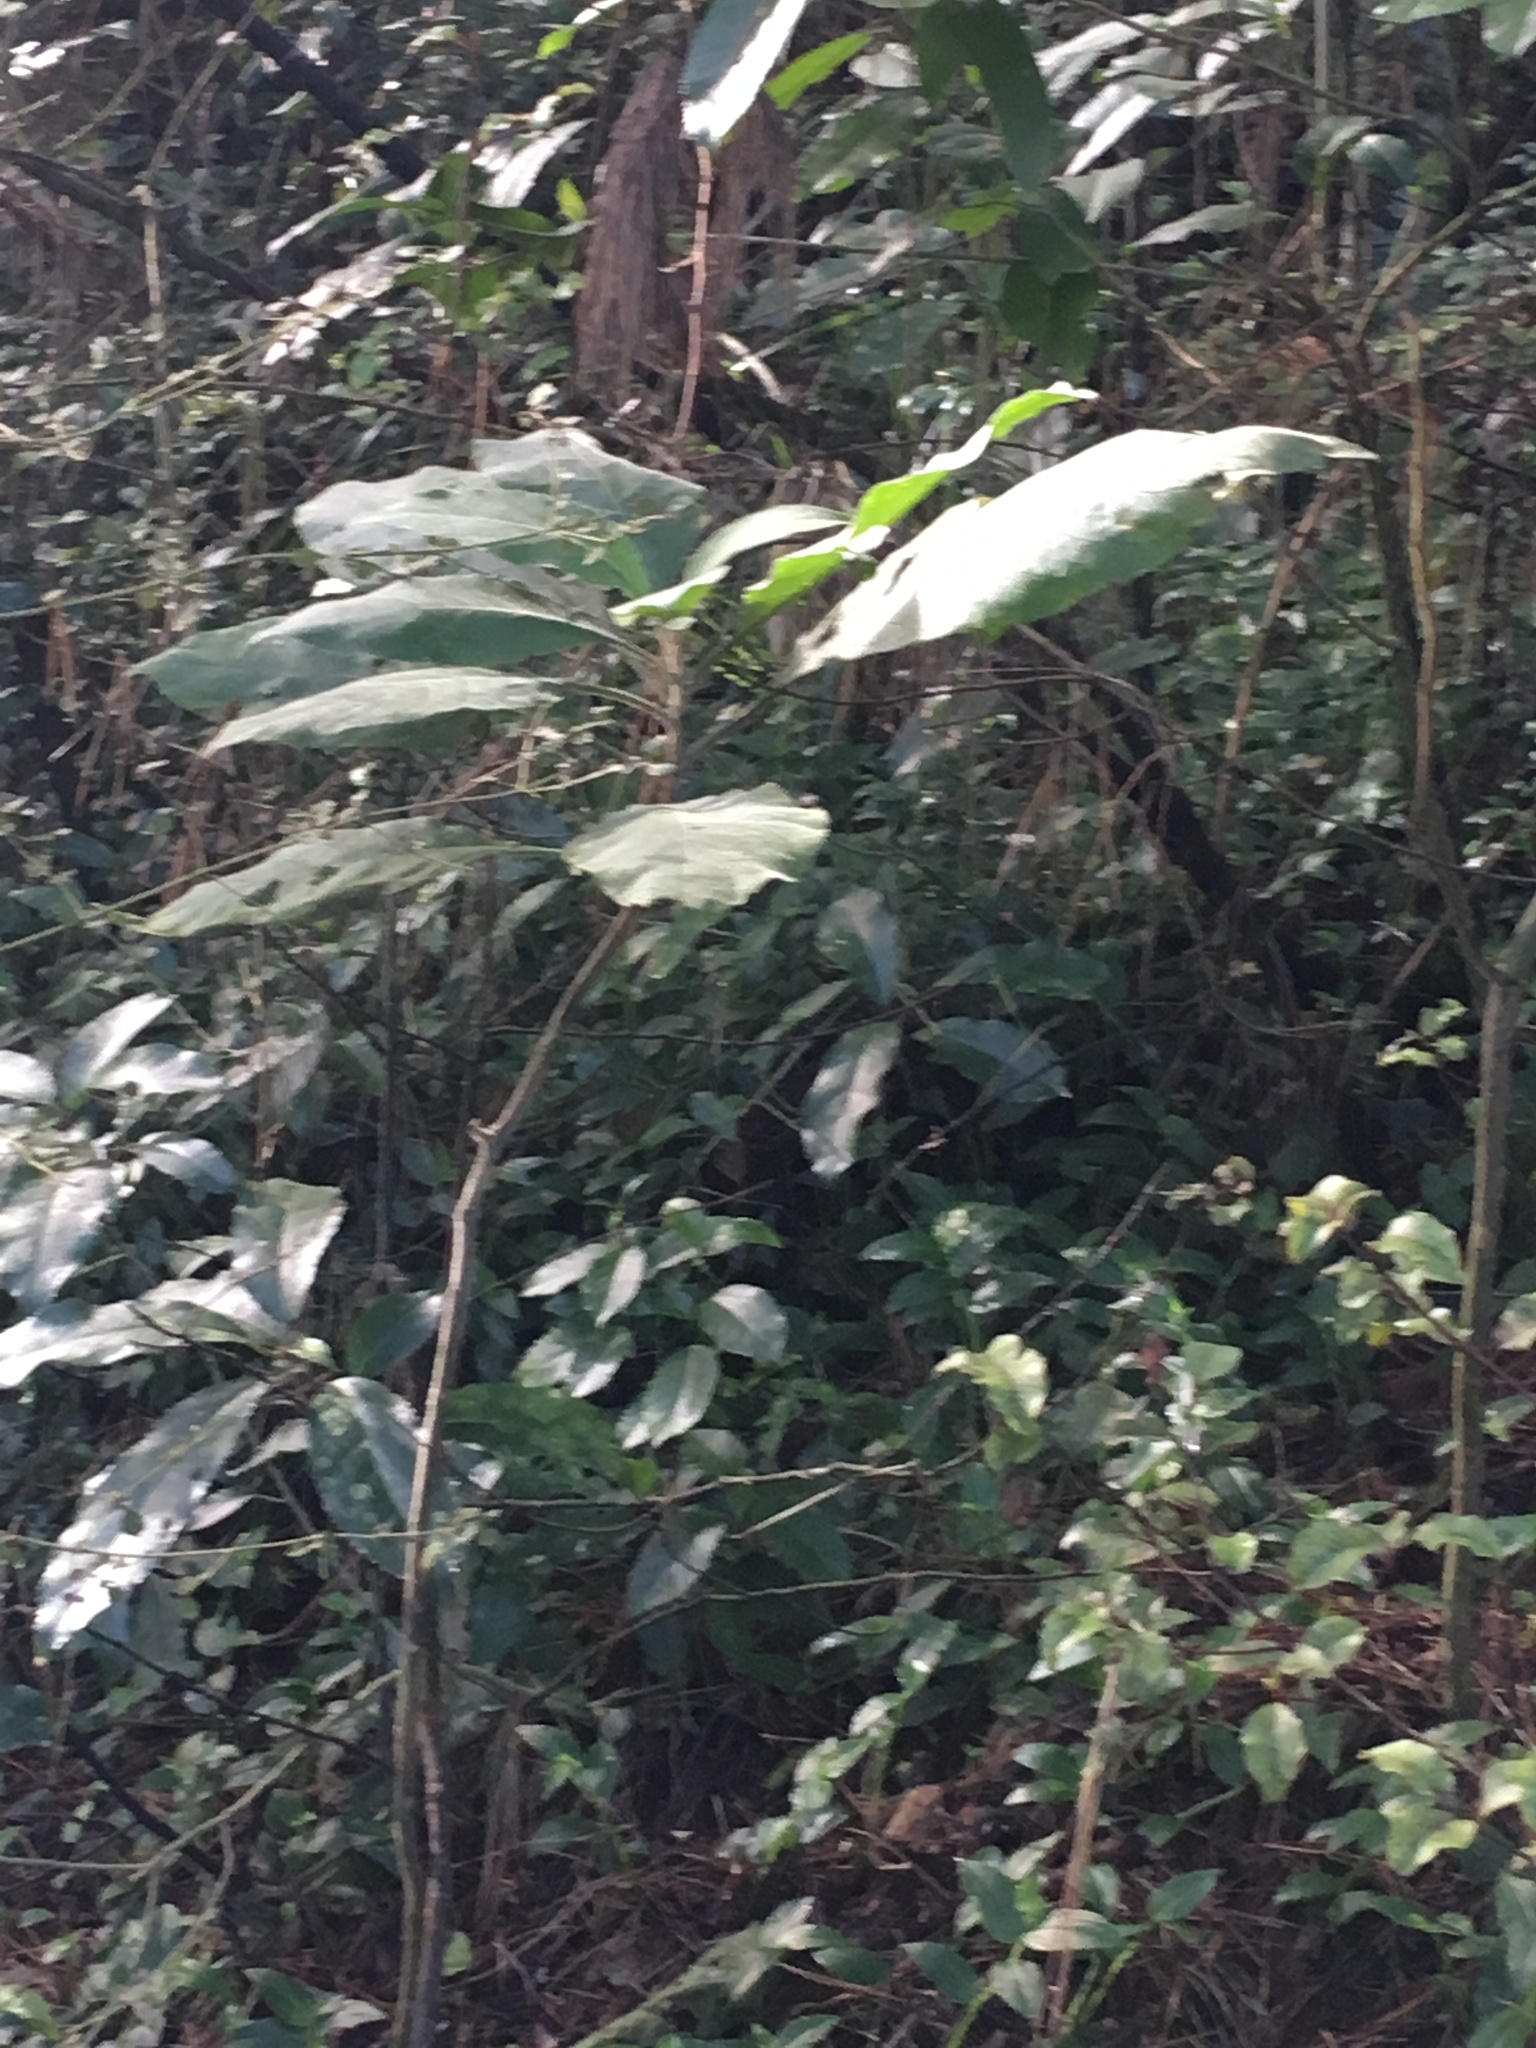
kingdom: Plantae
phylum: Tracheophyta
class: Magnoliopsida
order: Solanales
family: Solanaceae
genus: Solanum
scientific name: Solanum mauritianum
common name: Earleaf nightshade
